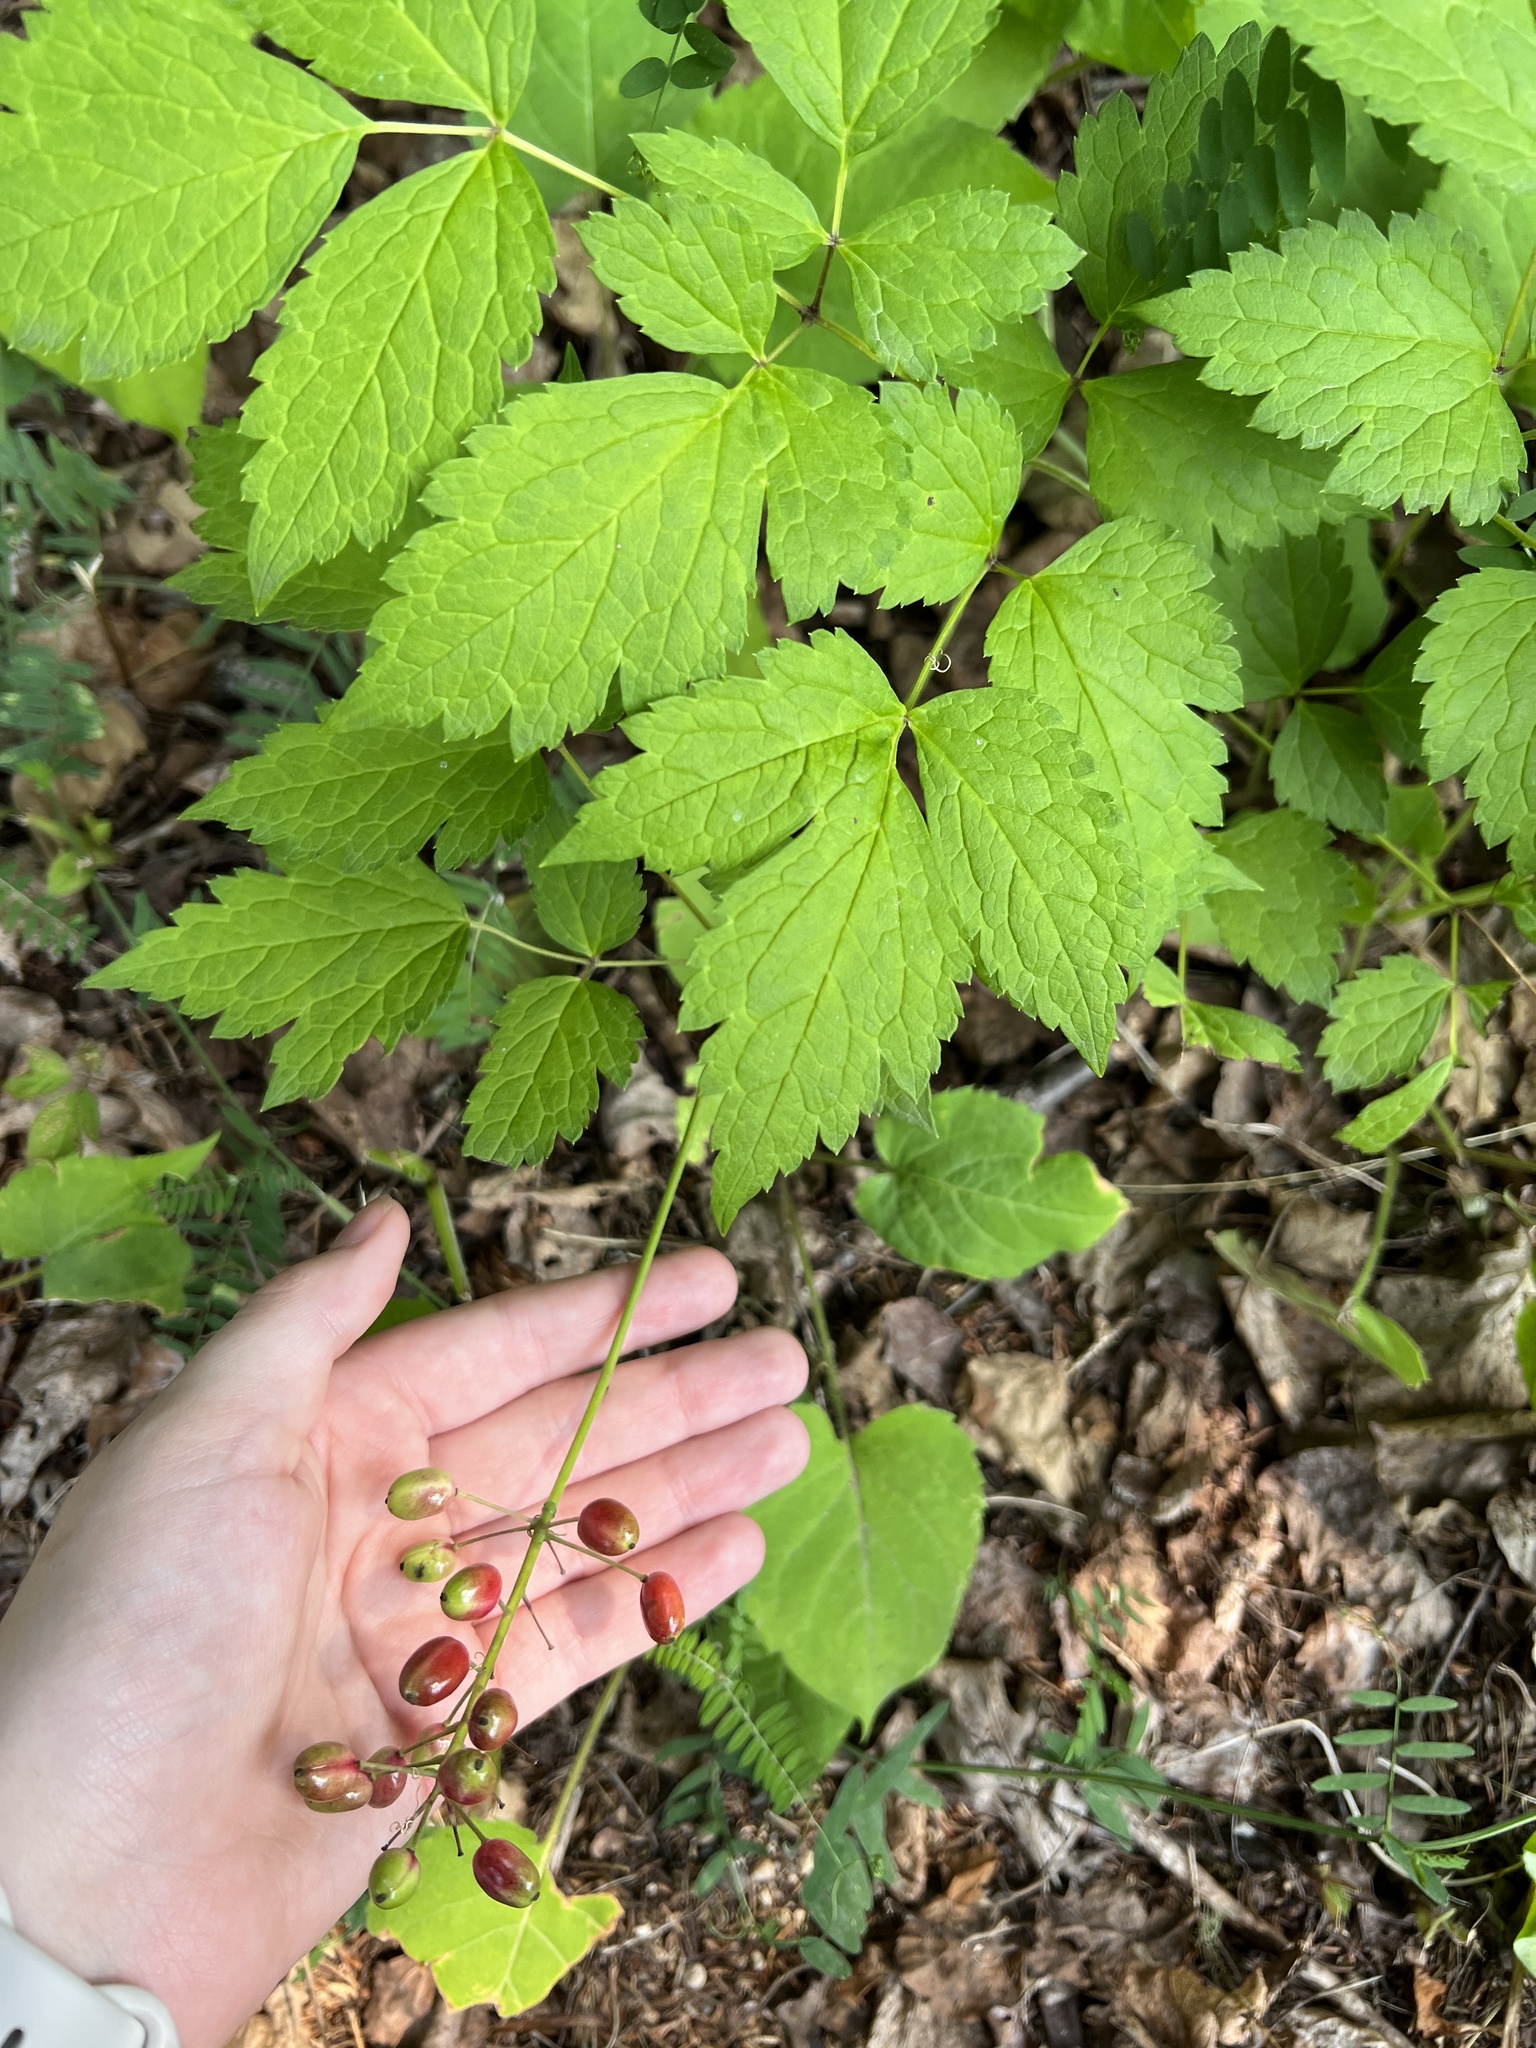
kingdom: Plantae
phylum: Tracheophyta
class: Magnoliopsida
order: Ranunculales
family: Ranunculaceae
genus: Actaea
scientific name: Actaea rubra
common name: Red baneberry
